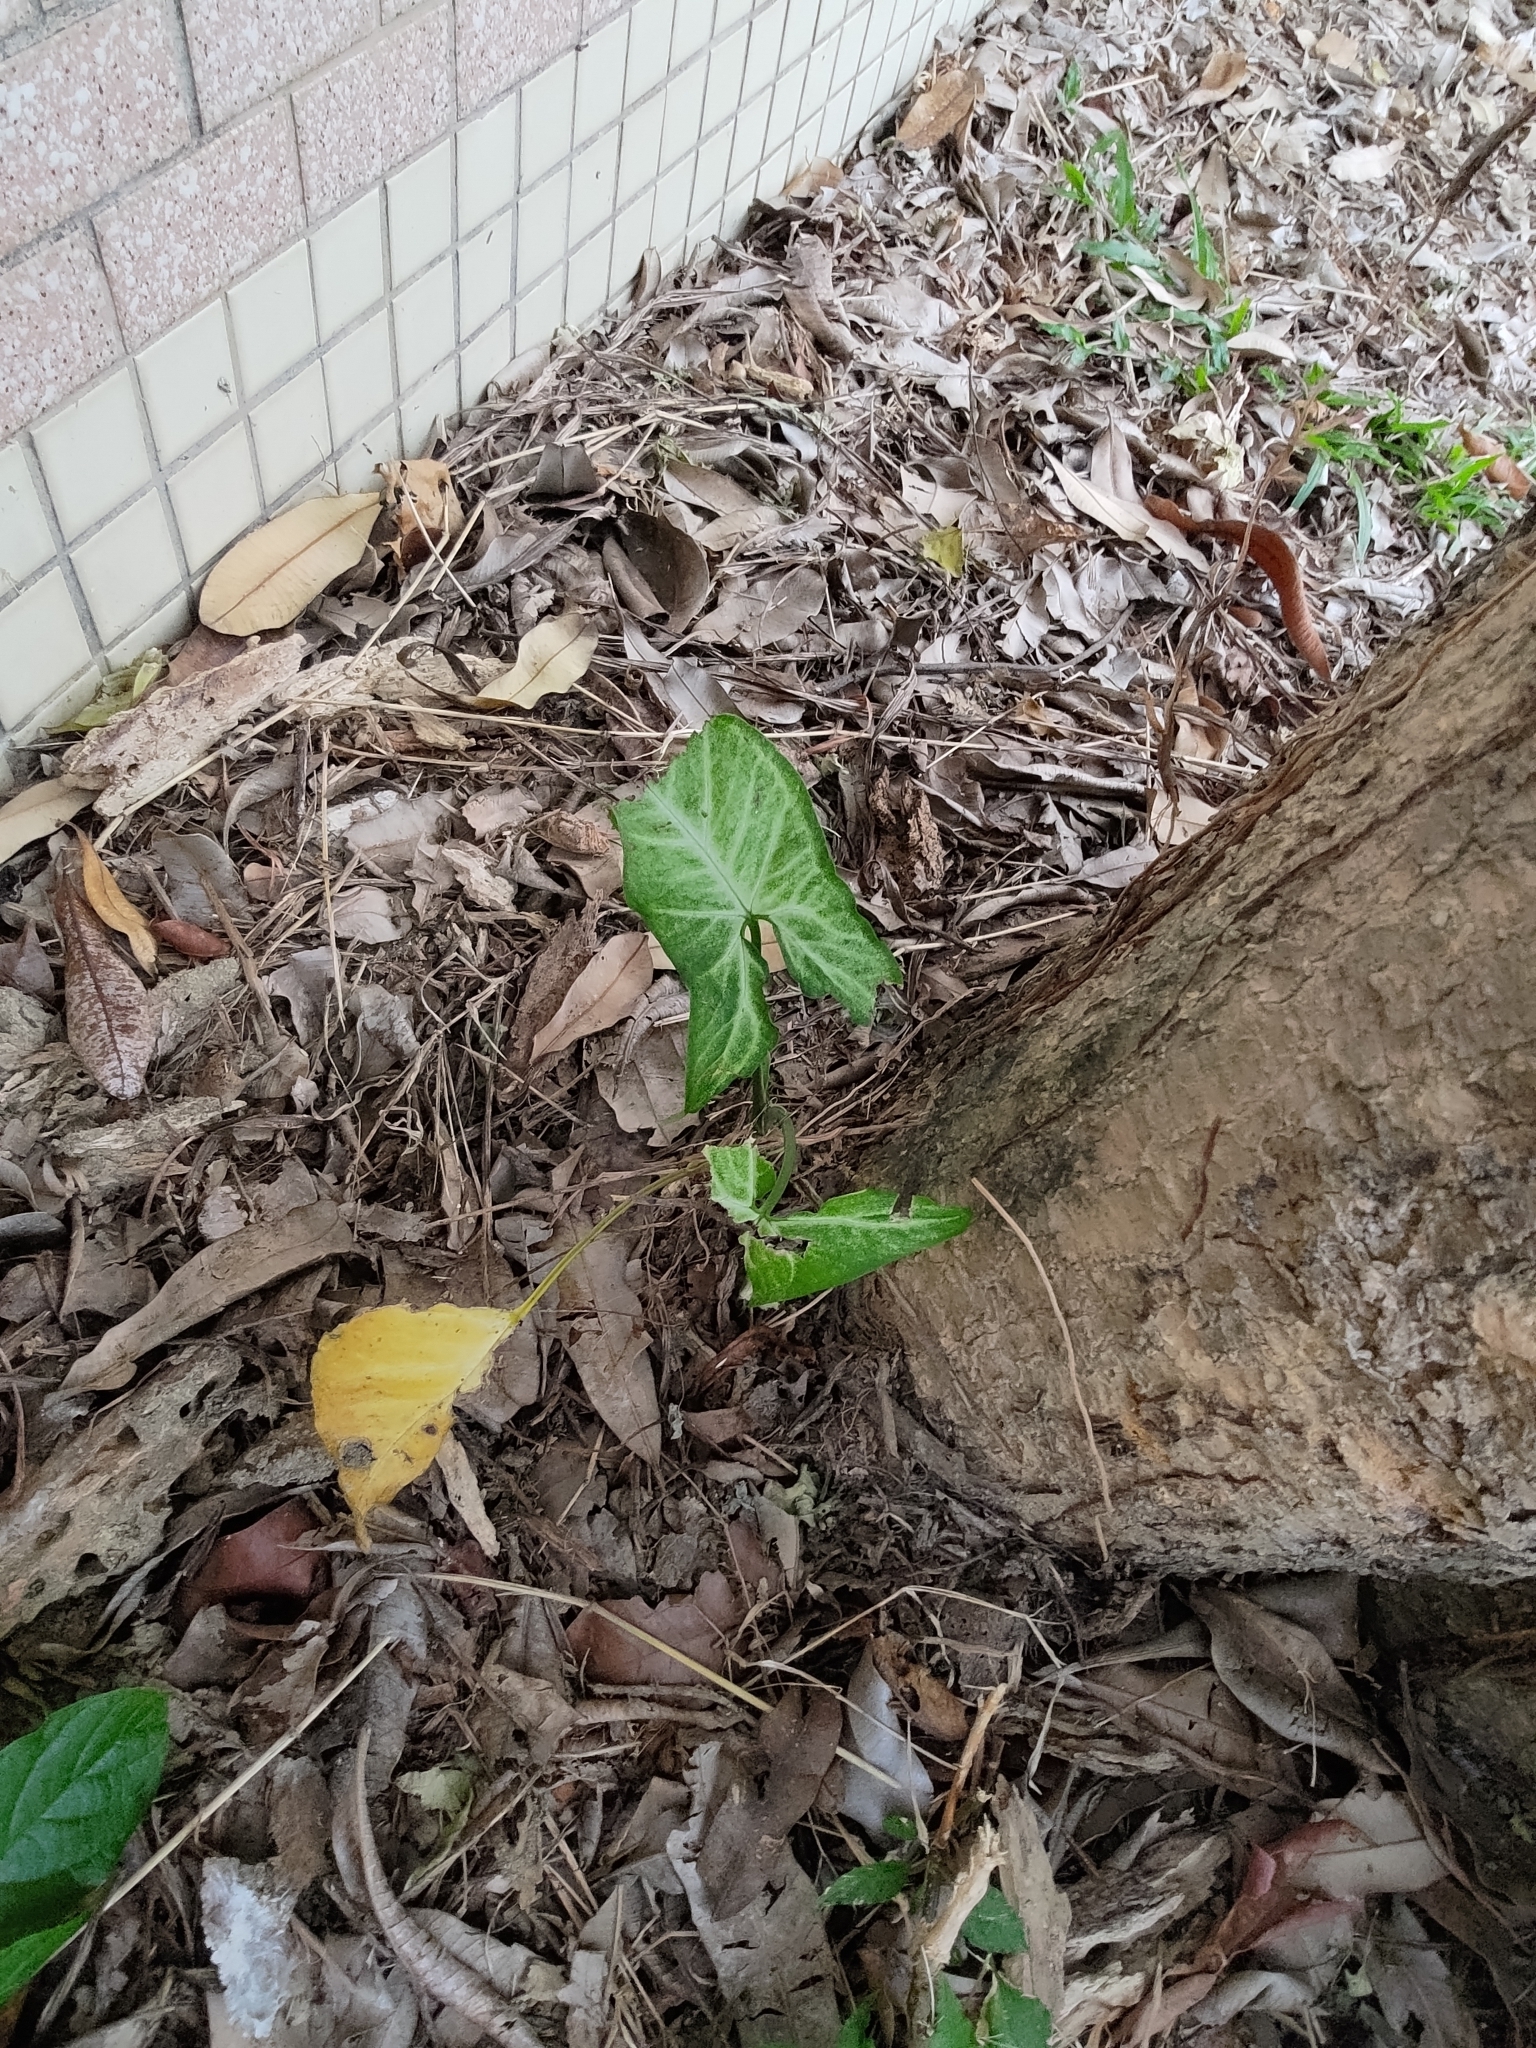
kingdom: Plantae
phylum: Tracheophyta
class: Liliopsida
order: Alismatales
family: Araceae
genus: Syngonium
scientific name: Syngonium podophyllum
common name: American evergreen
